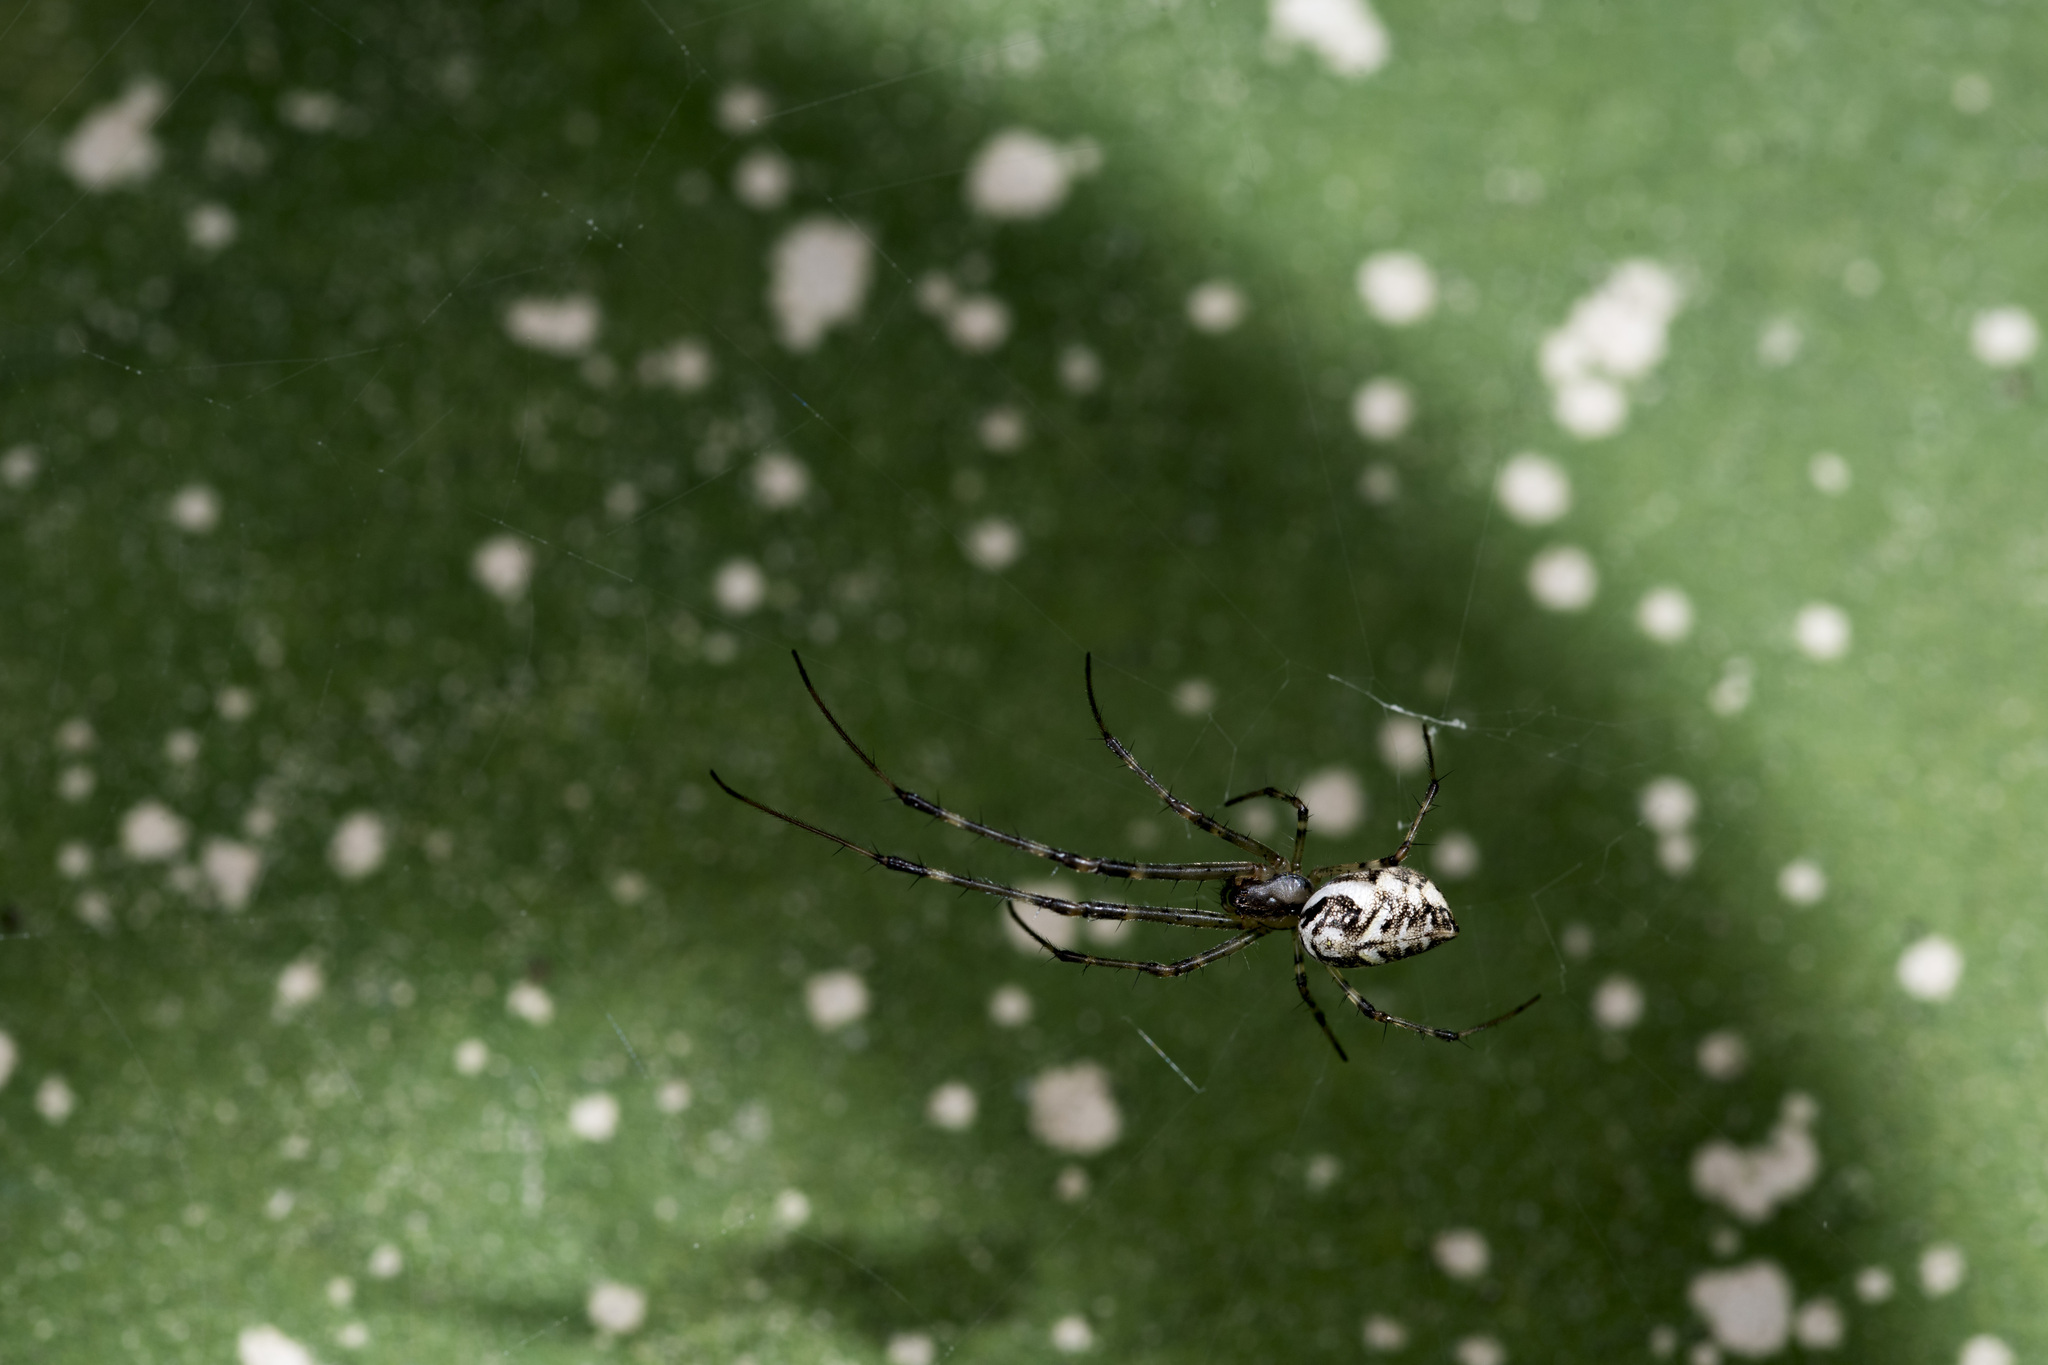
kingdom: Animalia
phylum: Arthropoda
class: Arachnida
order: Araneae
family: Tetragnathidae
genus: Tylorida
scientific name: Tylorida ventralis
